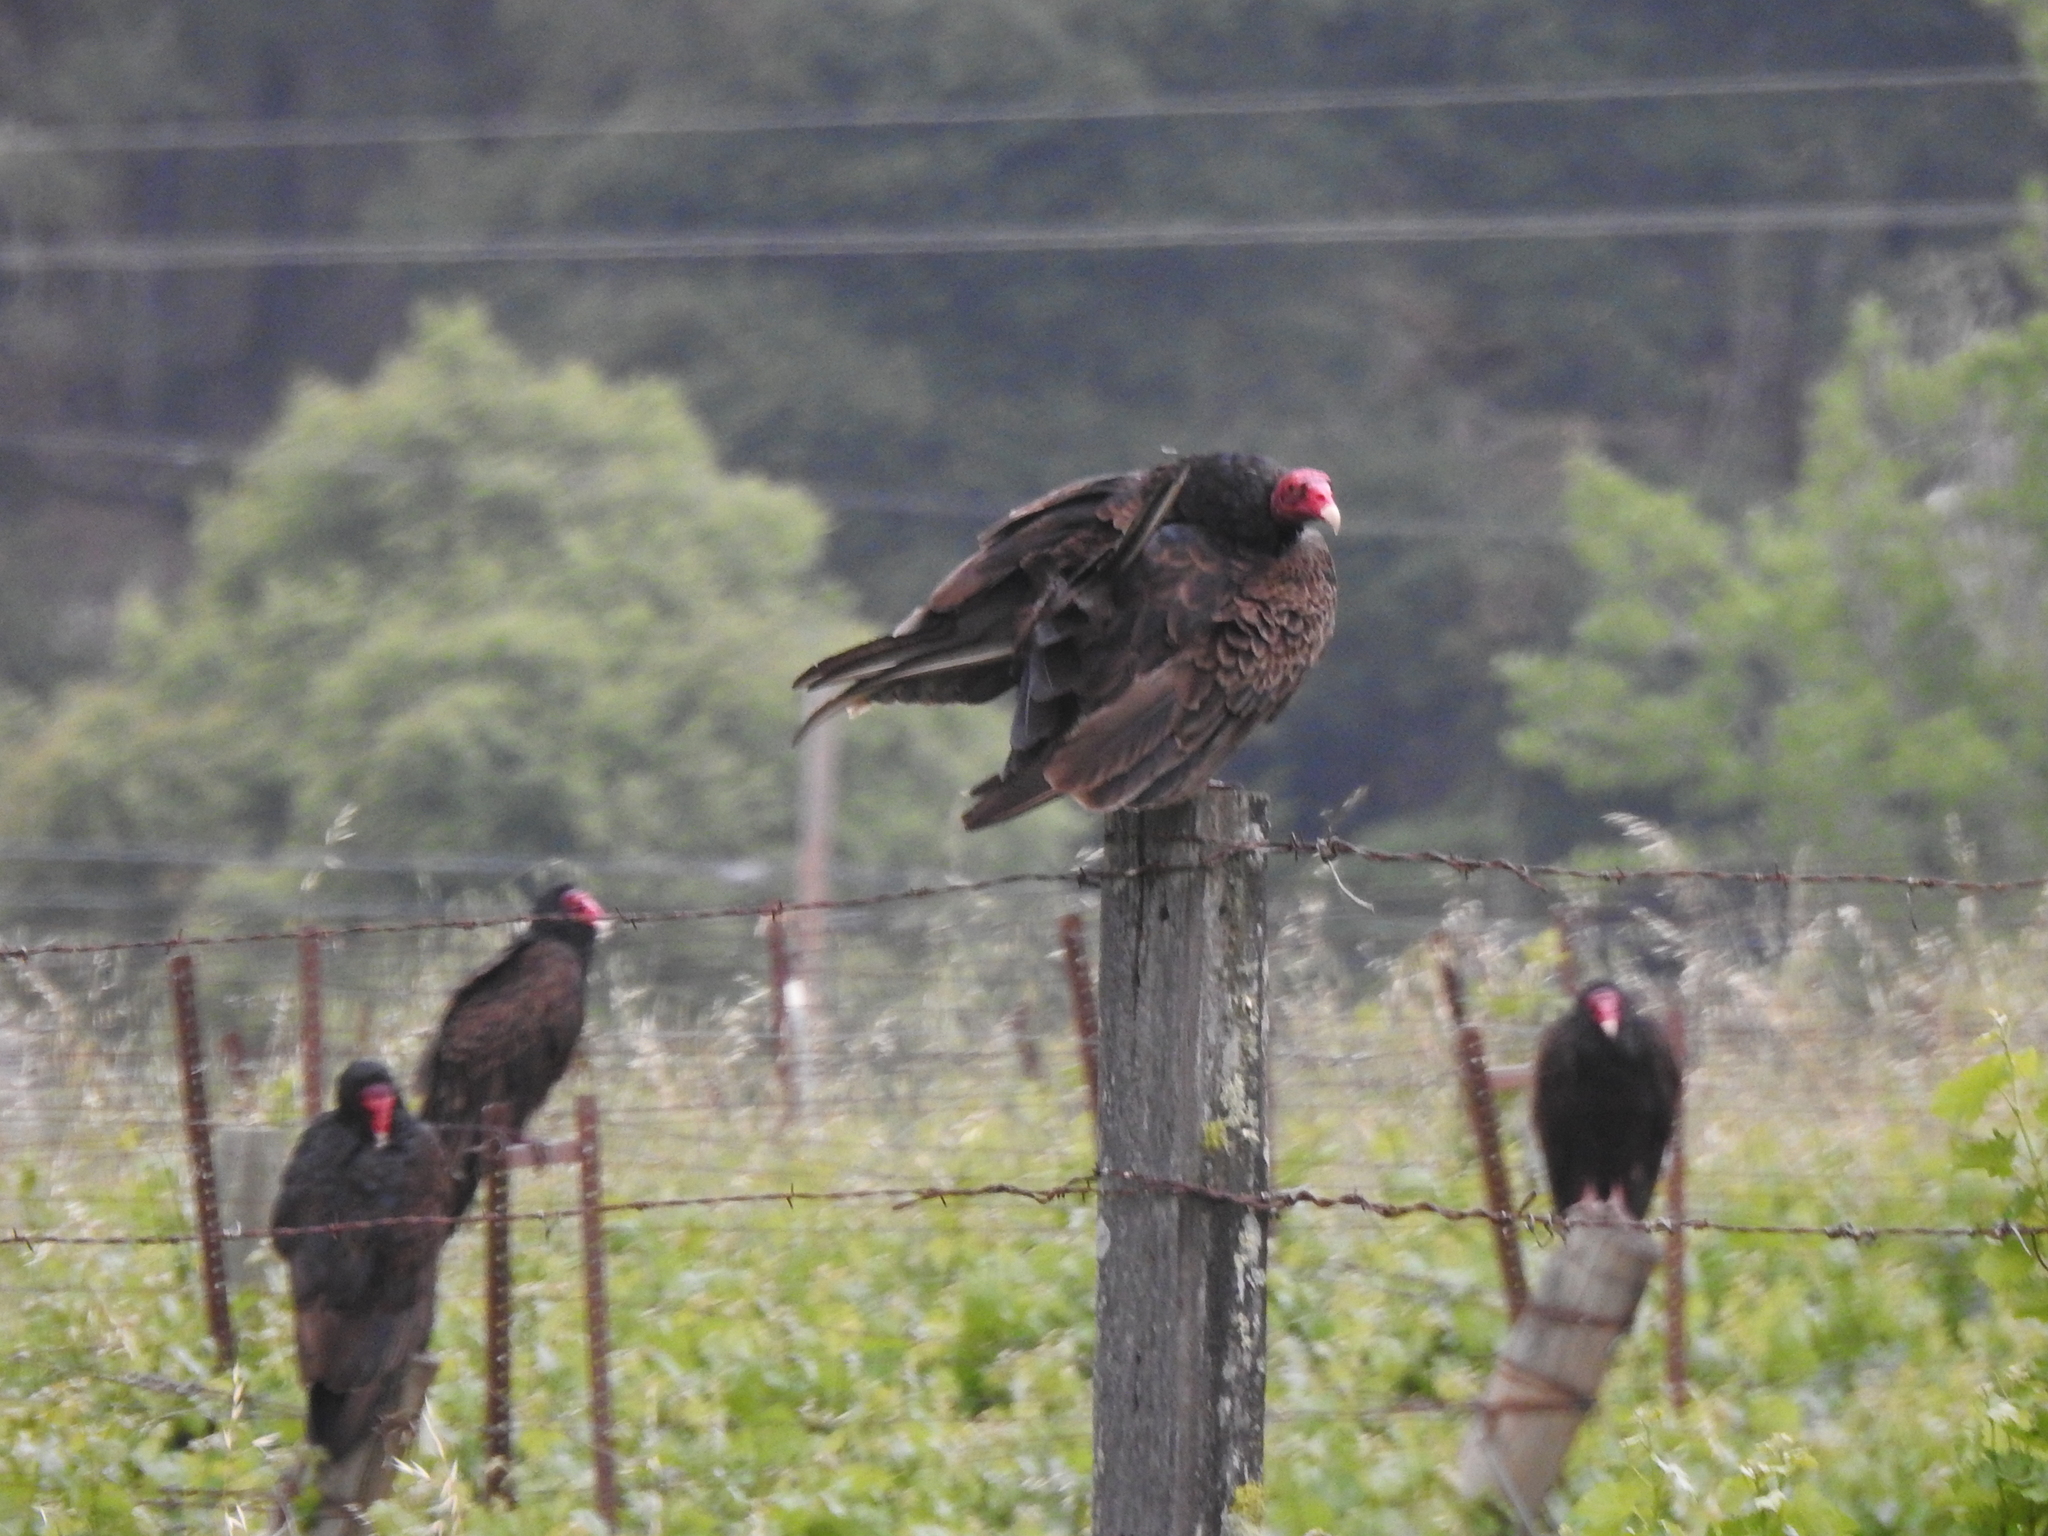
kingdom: Animalia
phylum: Chordata
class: Aves
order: Accipitriformes
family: Cathartidae
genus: Cathartes
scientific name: Cathartes aura
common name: Turkey vulture
